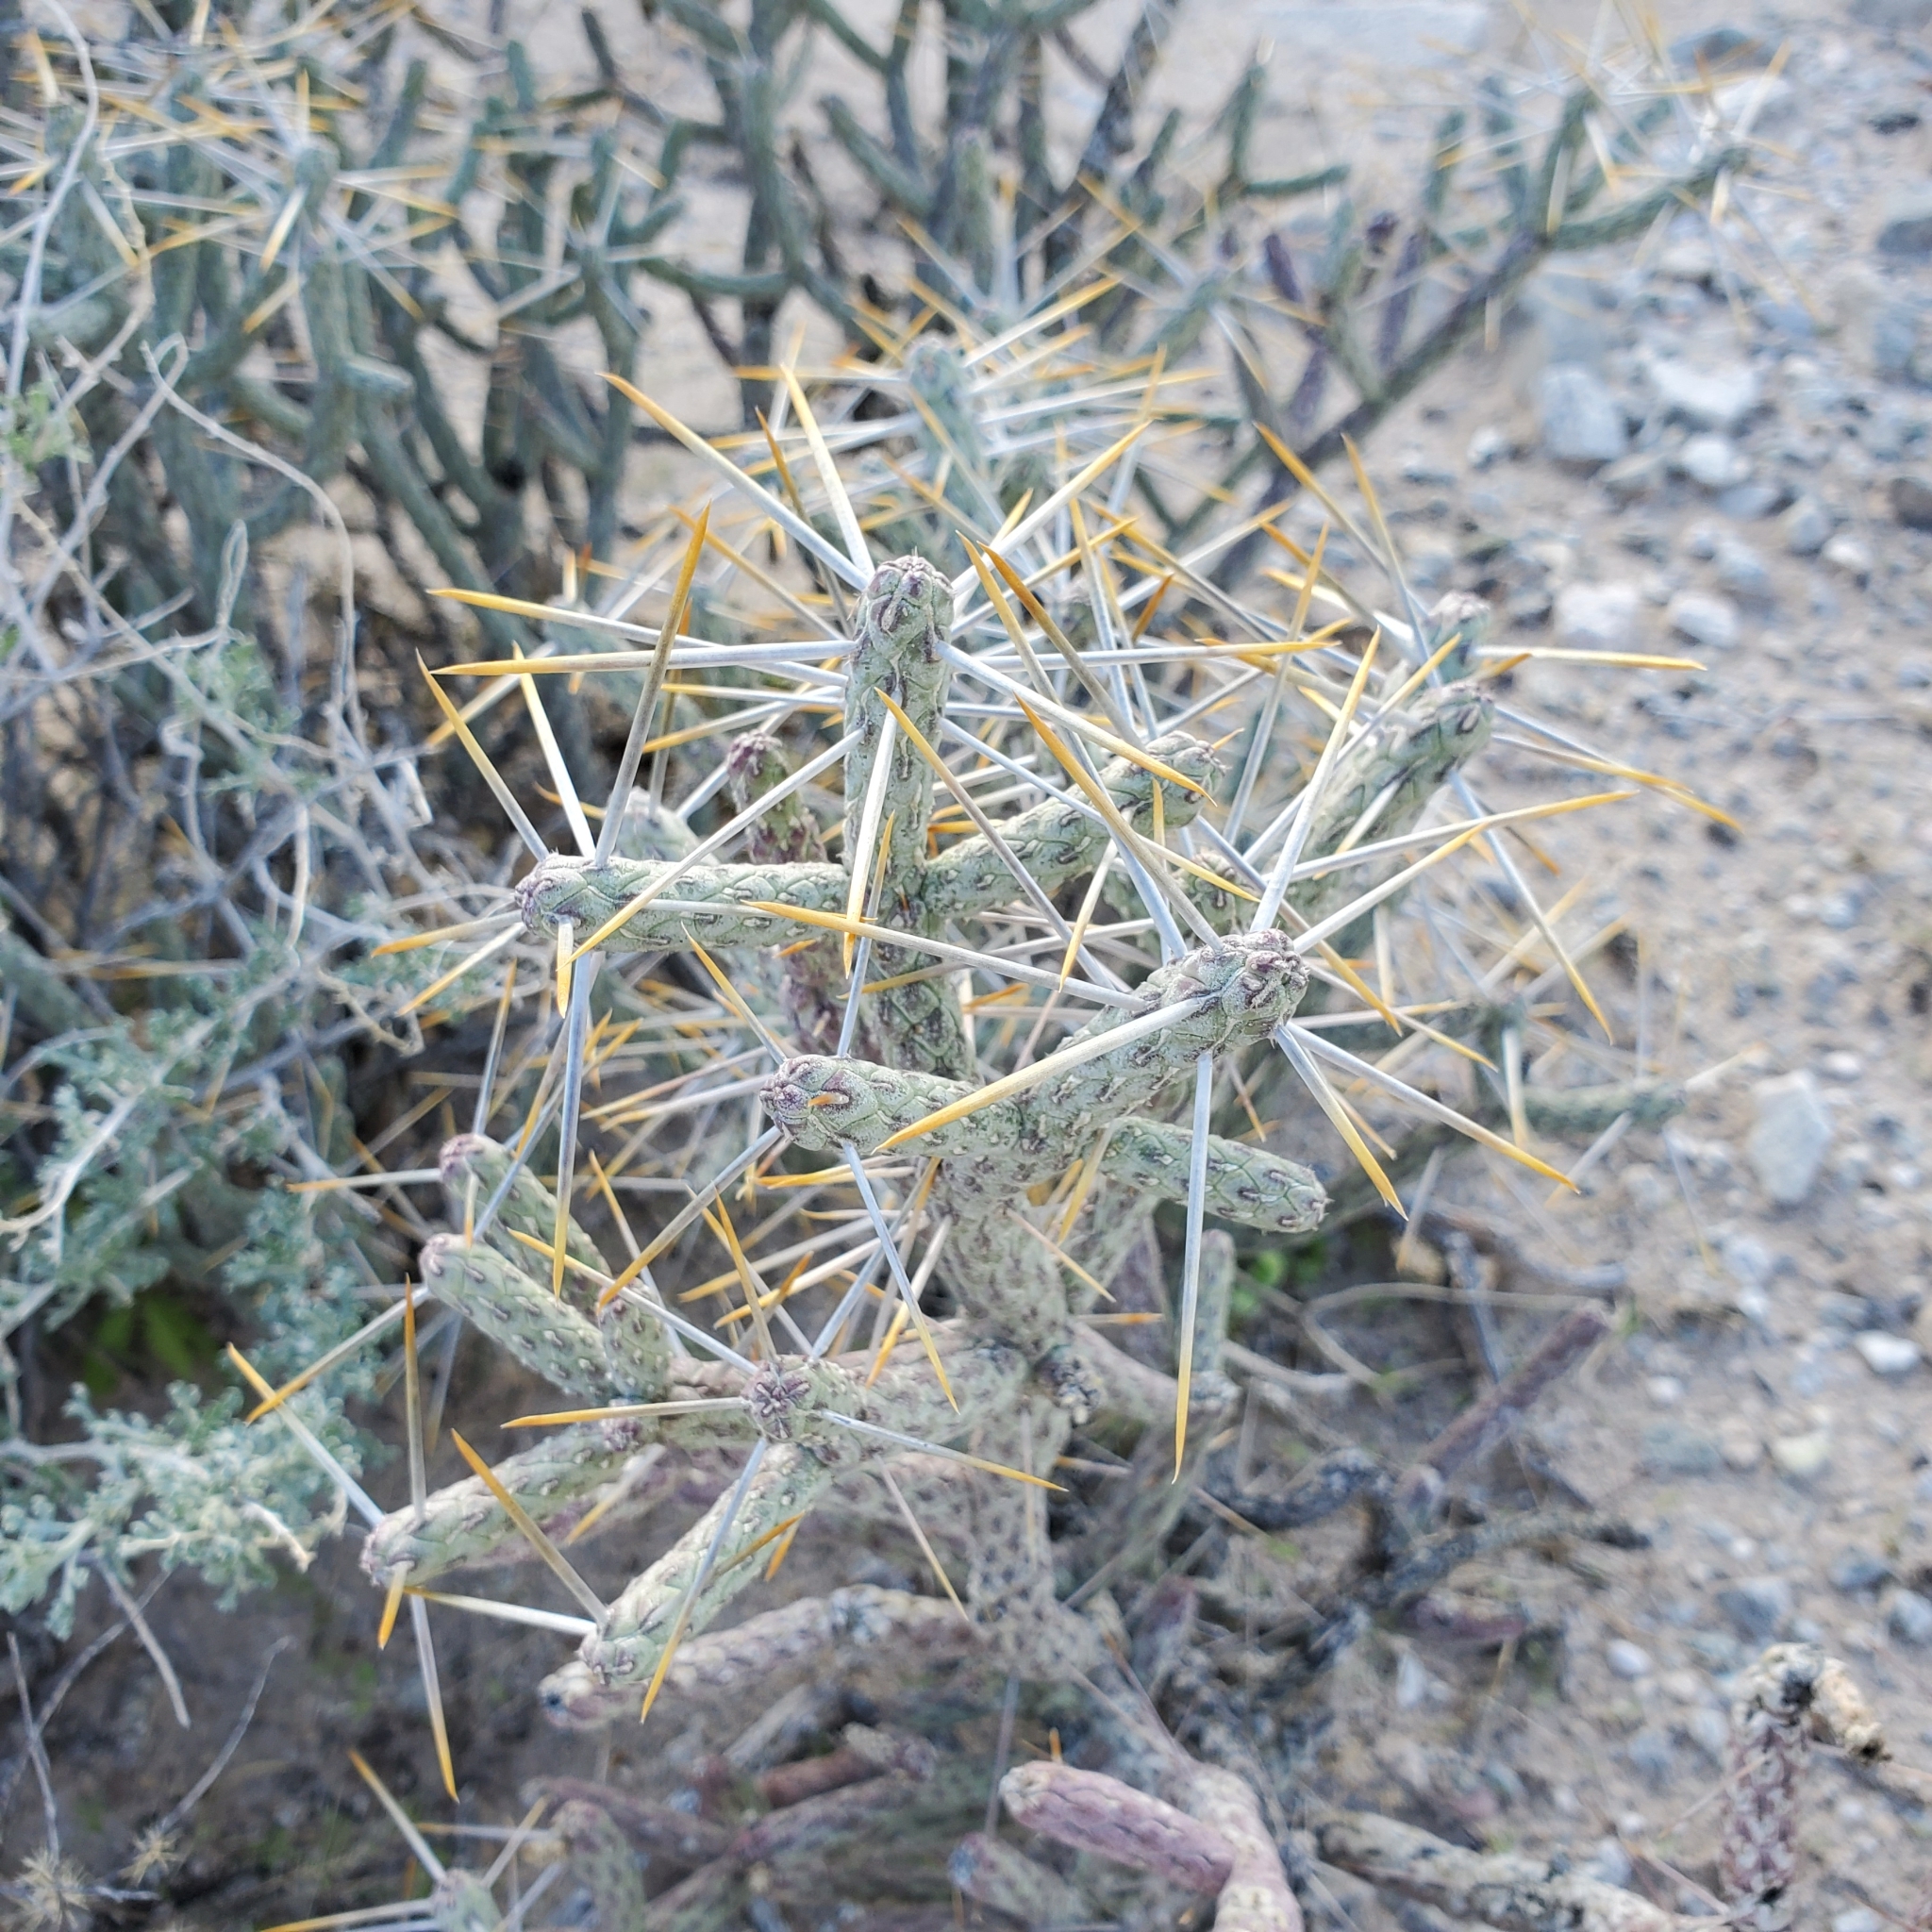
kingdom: Plantae
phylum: Tracheophyta
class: Magnoliopsida
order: Caryophyllales
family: Cactaceae
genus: Cylindropuntia
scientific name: Cylindropuntia ramosissima
